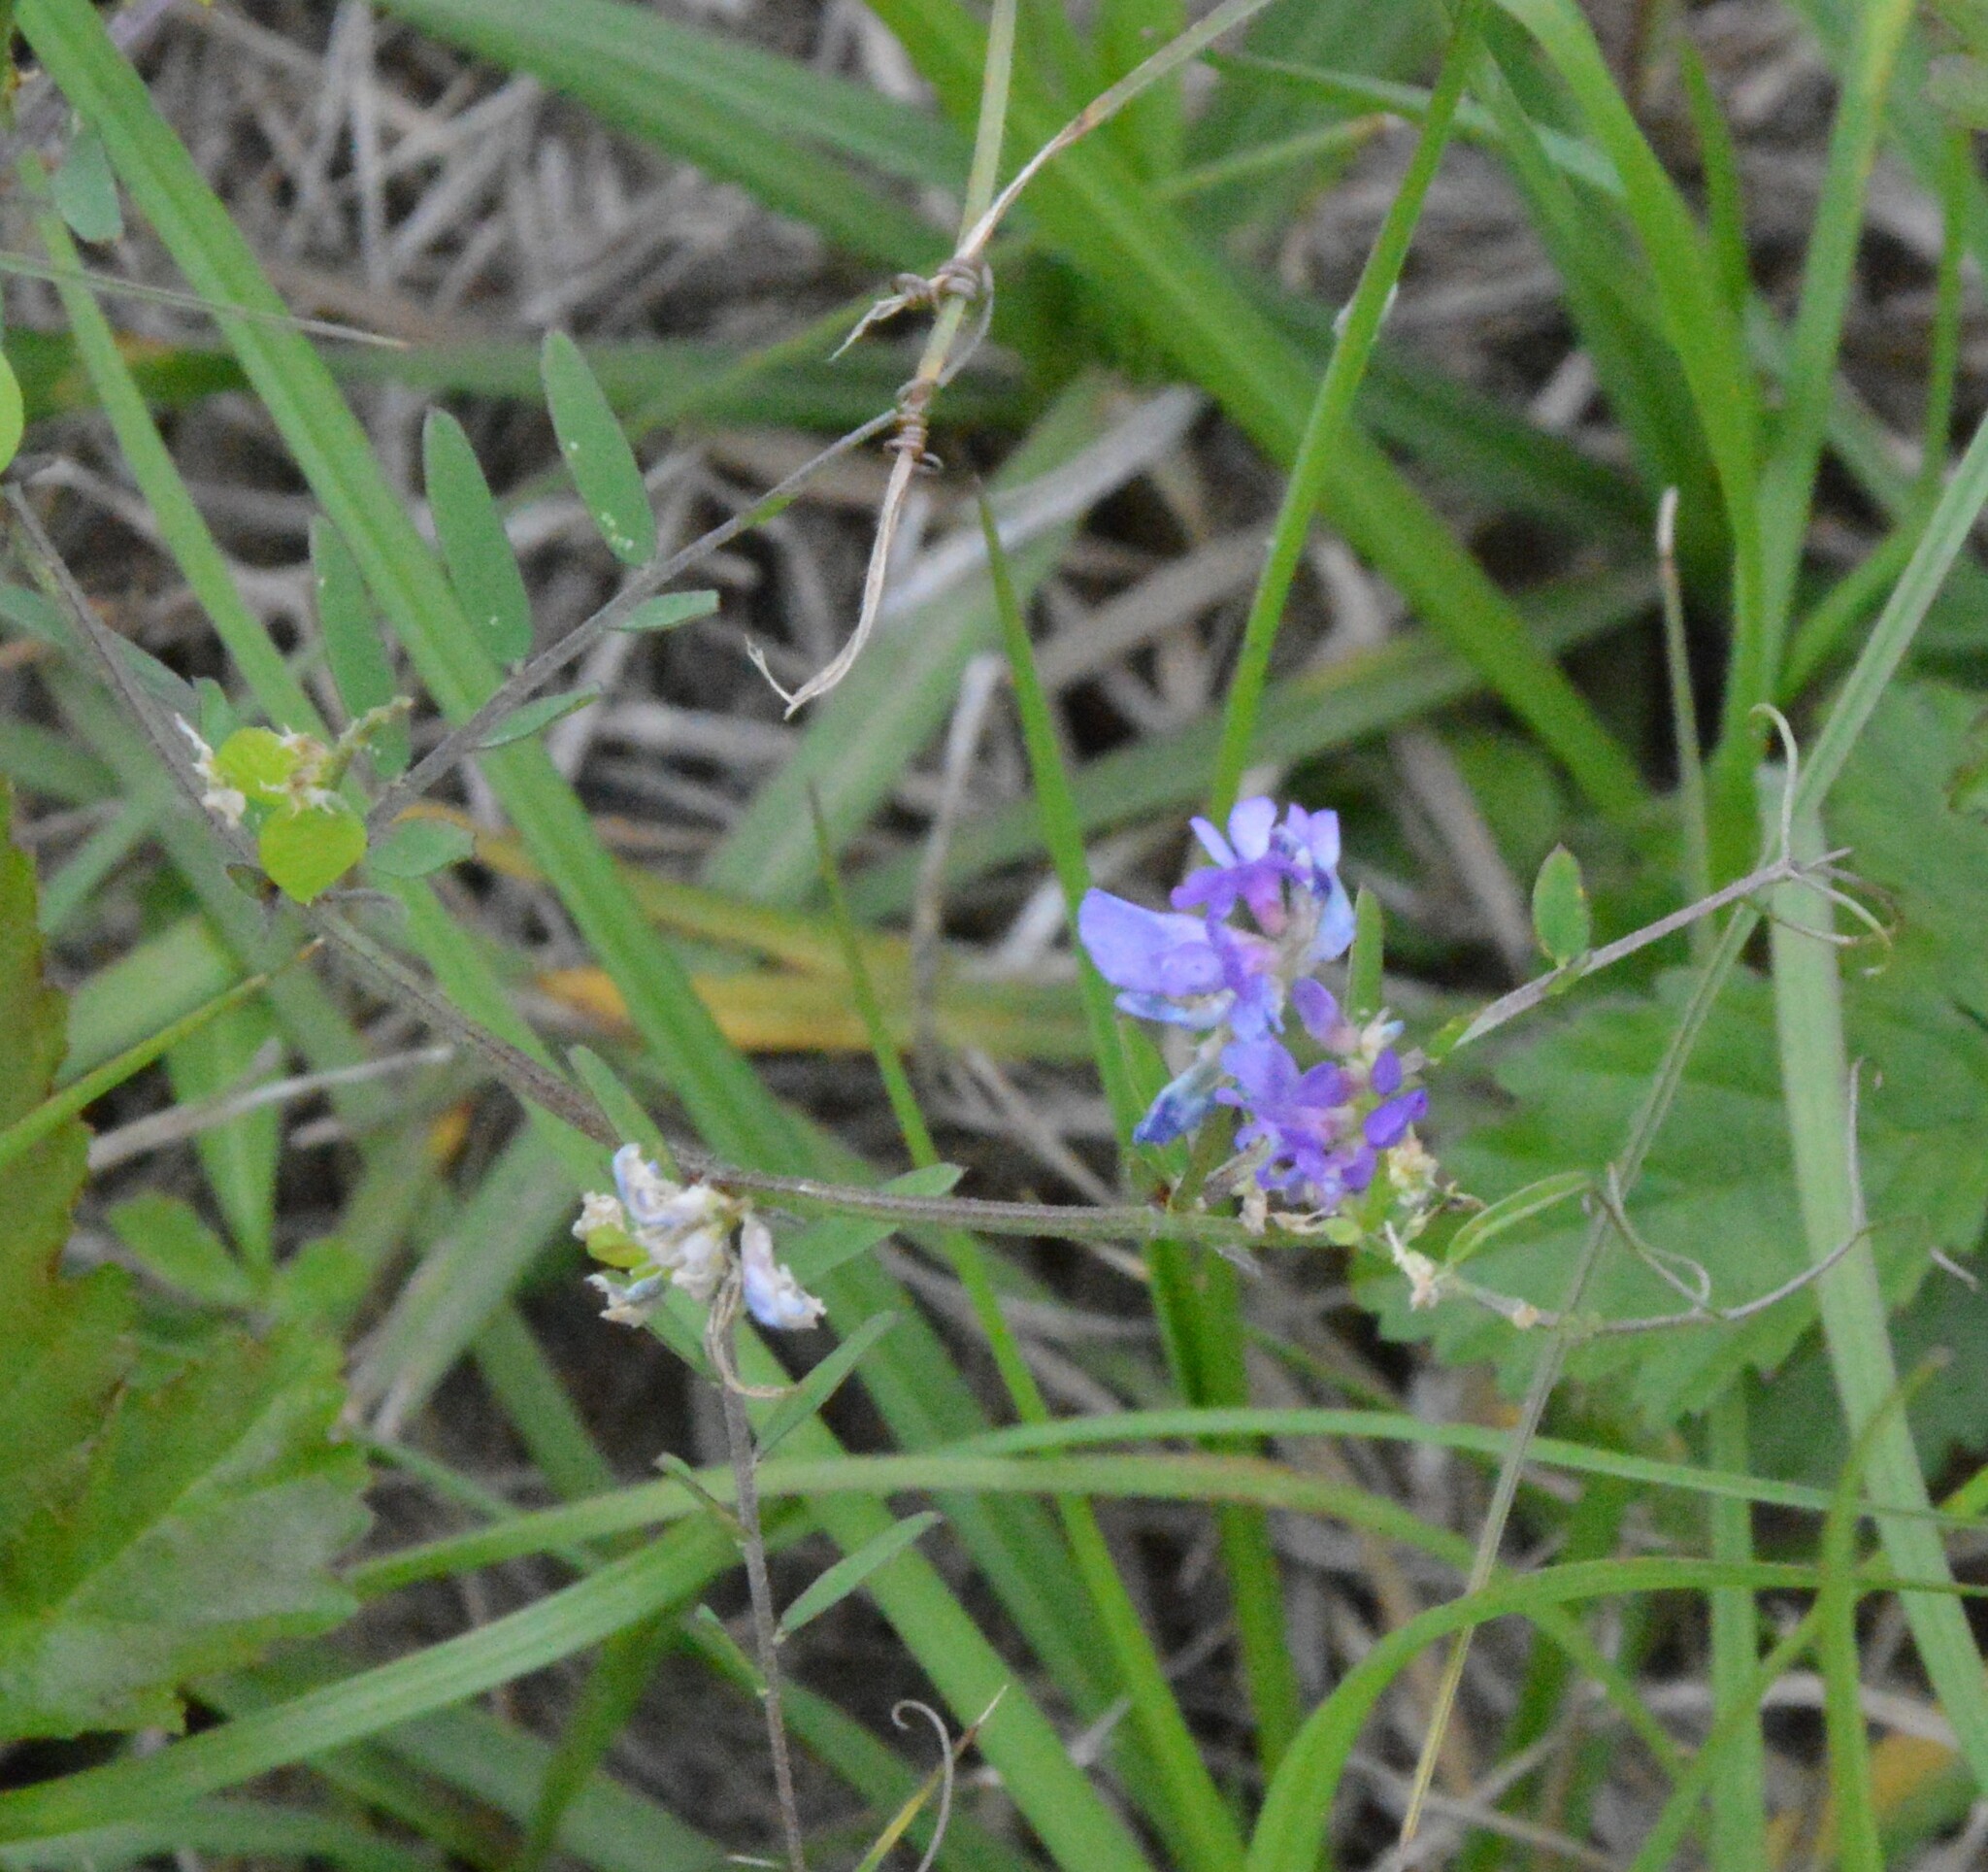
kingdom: Plantae
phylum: Tracheophyta
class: Magnoliopsida
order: Fabales
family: Fabaceae
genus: Vicia
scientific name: Vicia ludoviciana
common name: Louisiana vetch
